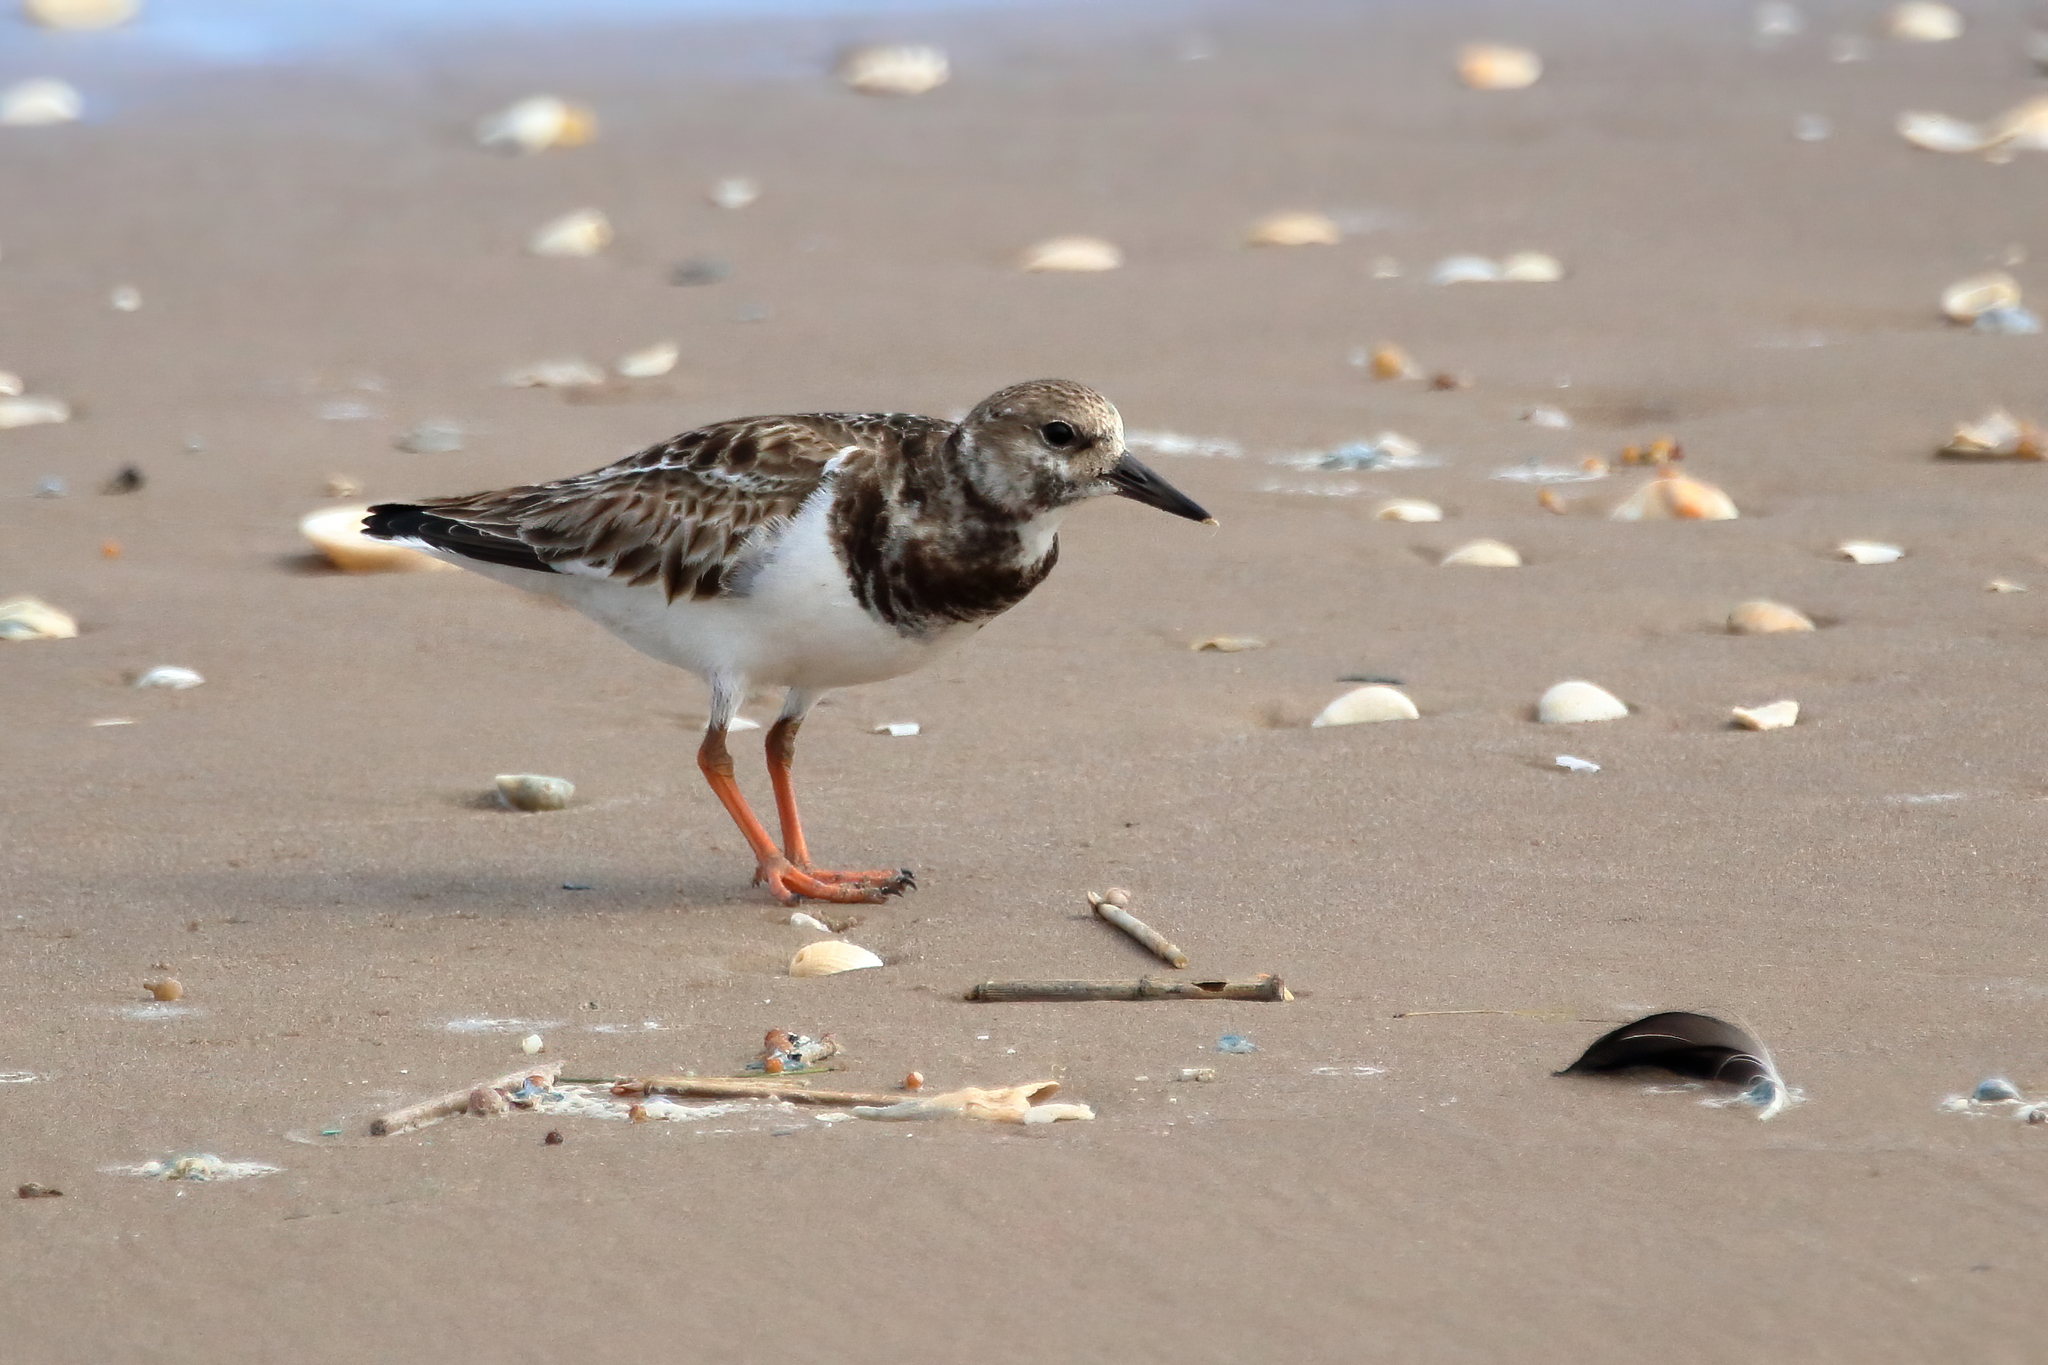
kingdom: Animalia
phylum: Chordata
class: Aves
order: Charadriiformes
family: Scolopacidae
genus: Arenaria
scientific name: Arenaria interpres
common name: Ruddy turnstone
